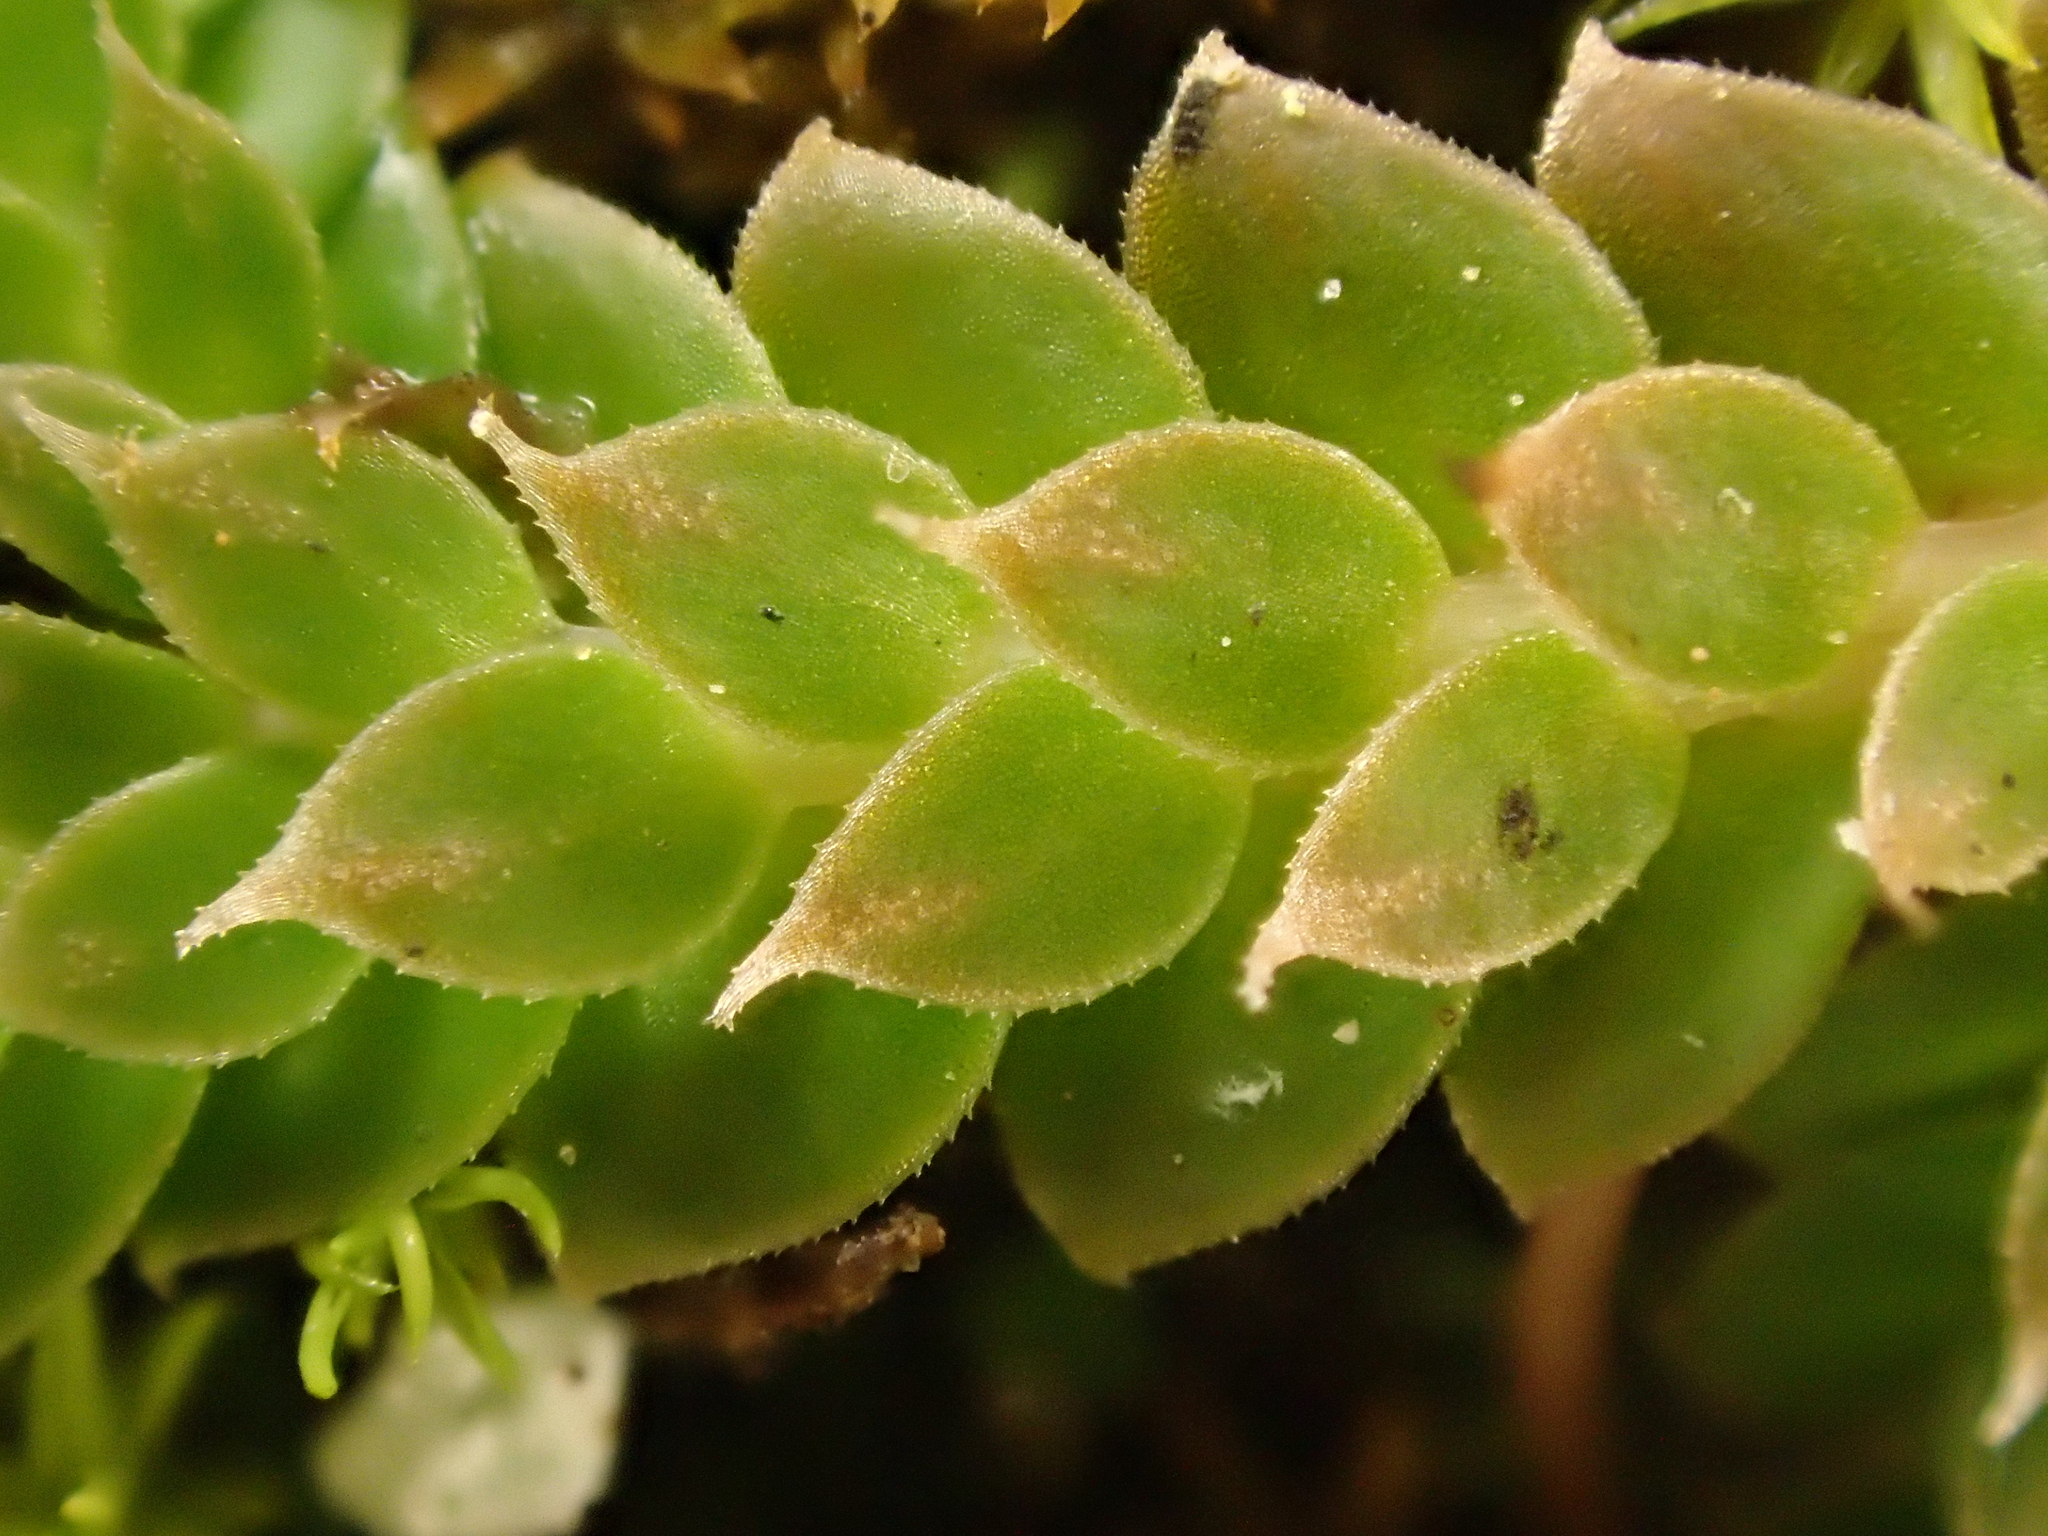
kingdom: Plantae
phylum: Tracheophyta
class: Lycopodiopsida
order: Selaginellales
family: Selaginellaceae
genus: Selaginella
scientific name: Selaginella denticulata
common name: Toothed-leaved clubmoss
